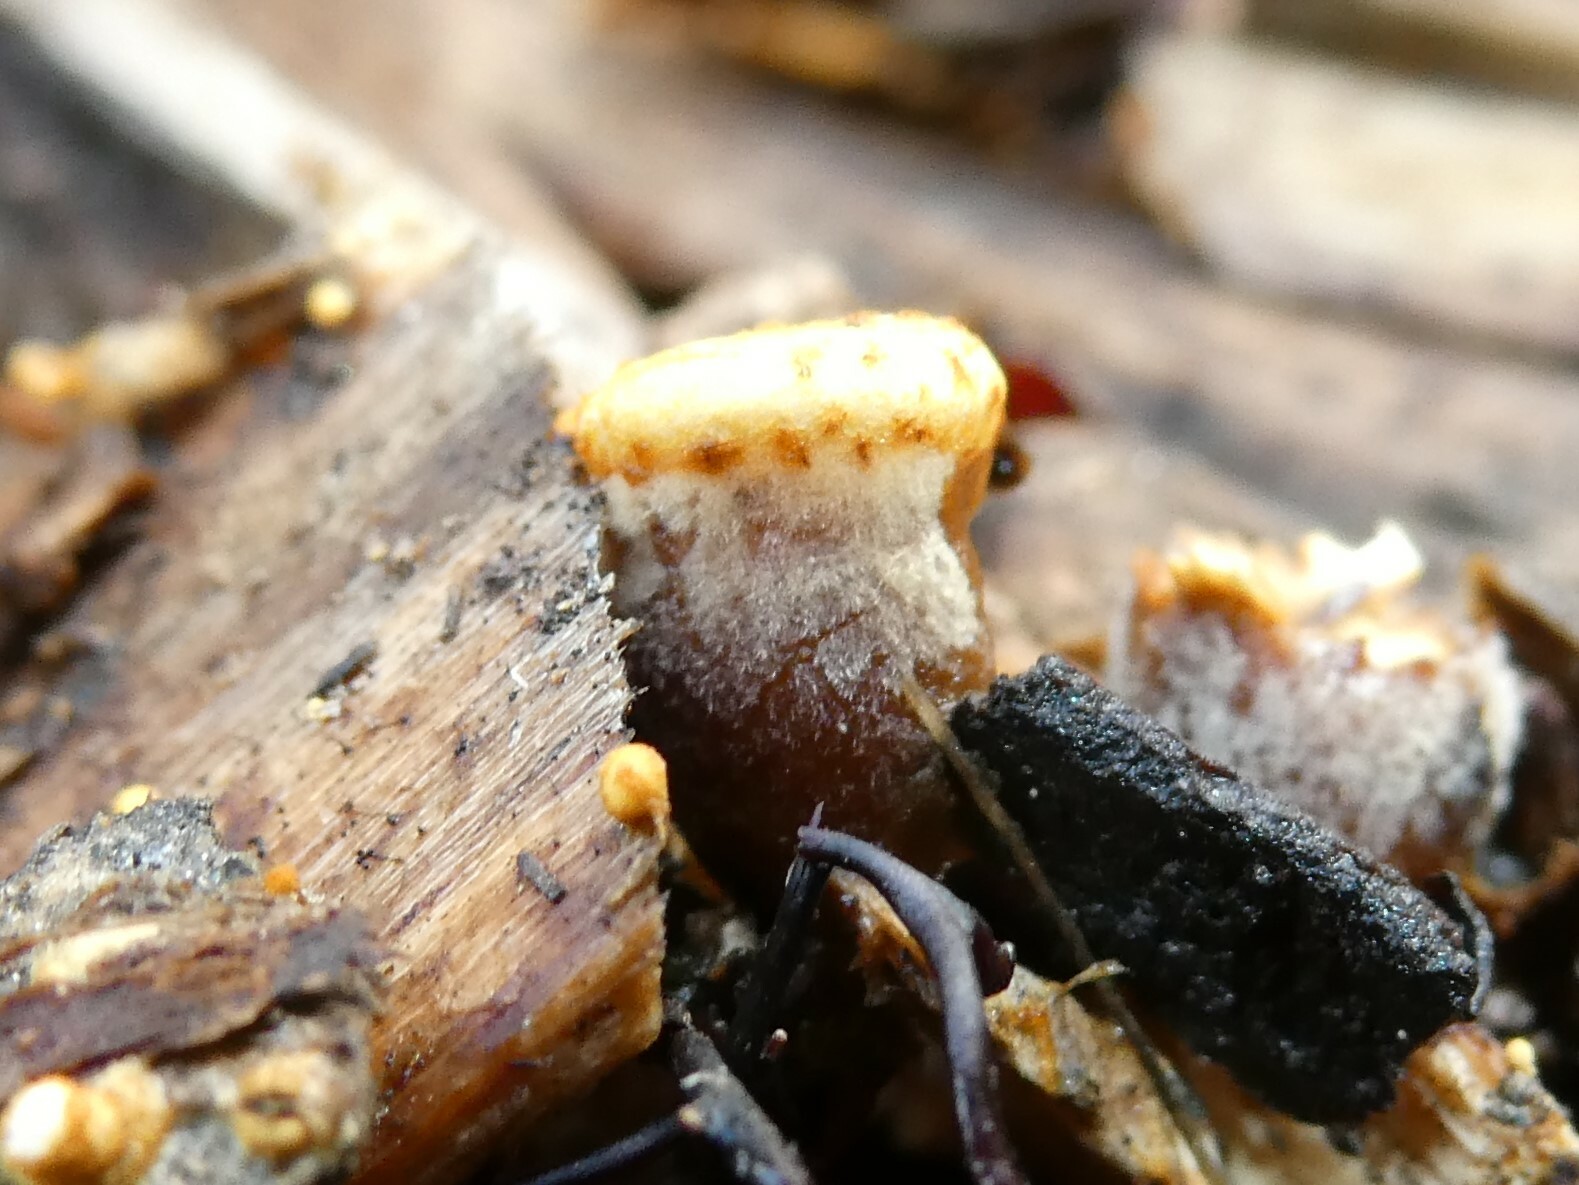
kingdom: Fungi
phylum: Basidiomycota
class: Agaricomycetes
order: Agaricales
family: Nidulariaceae
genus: Crucibulum
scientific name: Crucibulum laeve
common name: Common bird's nest
